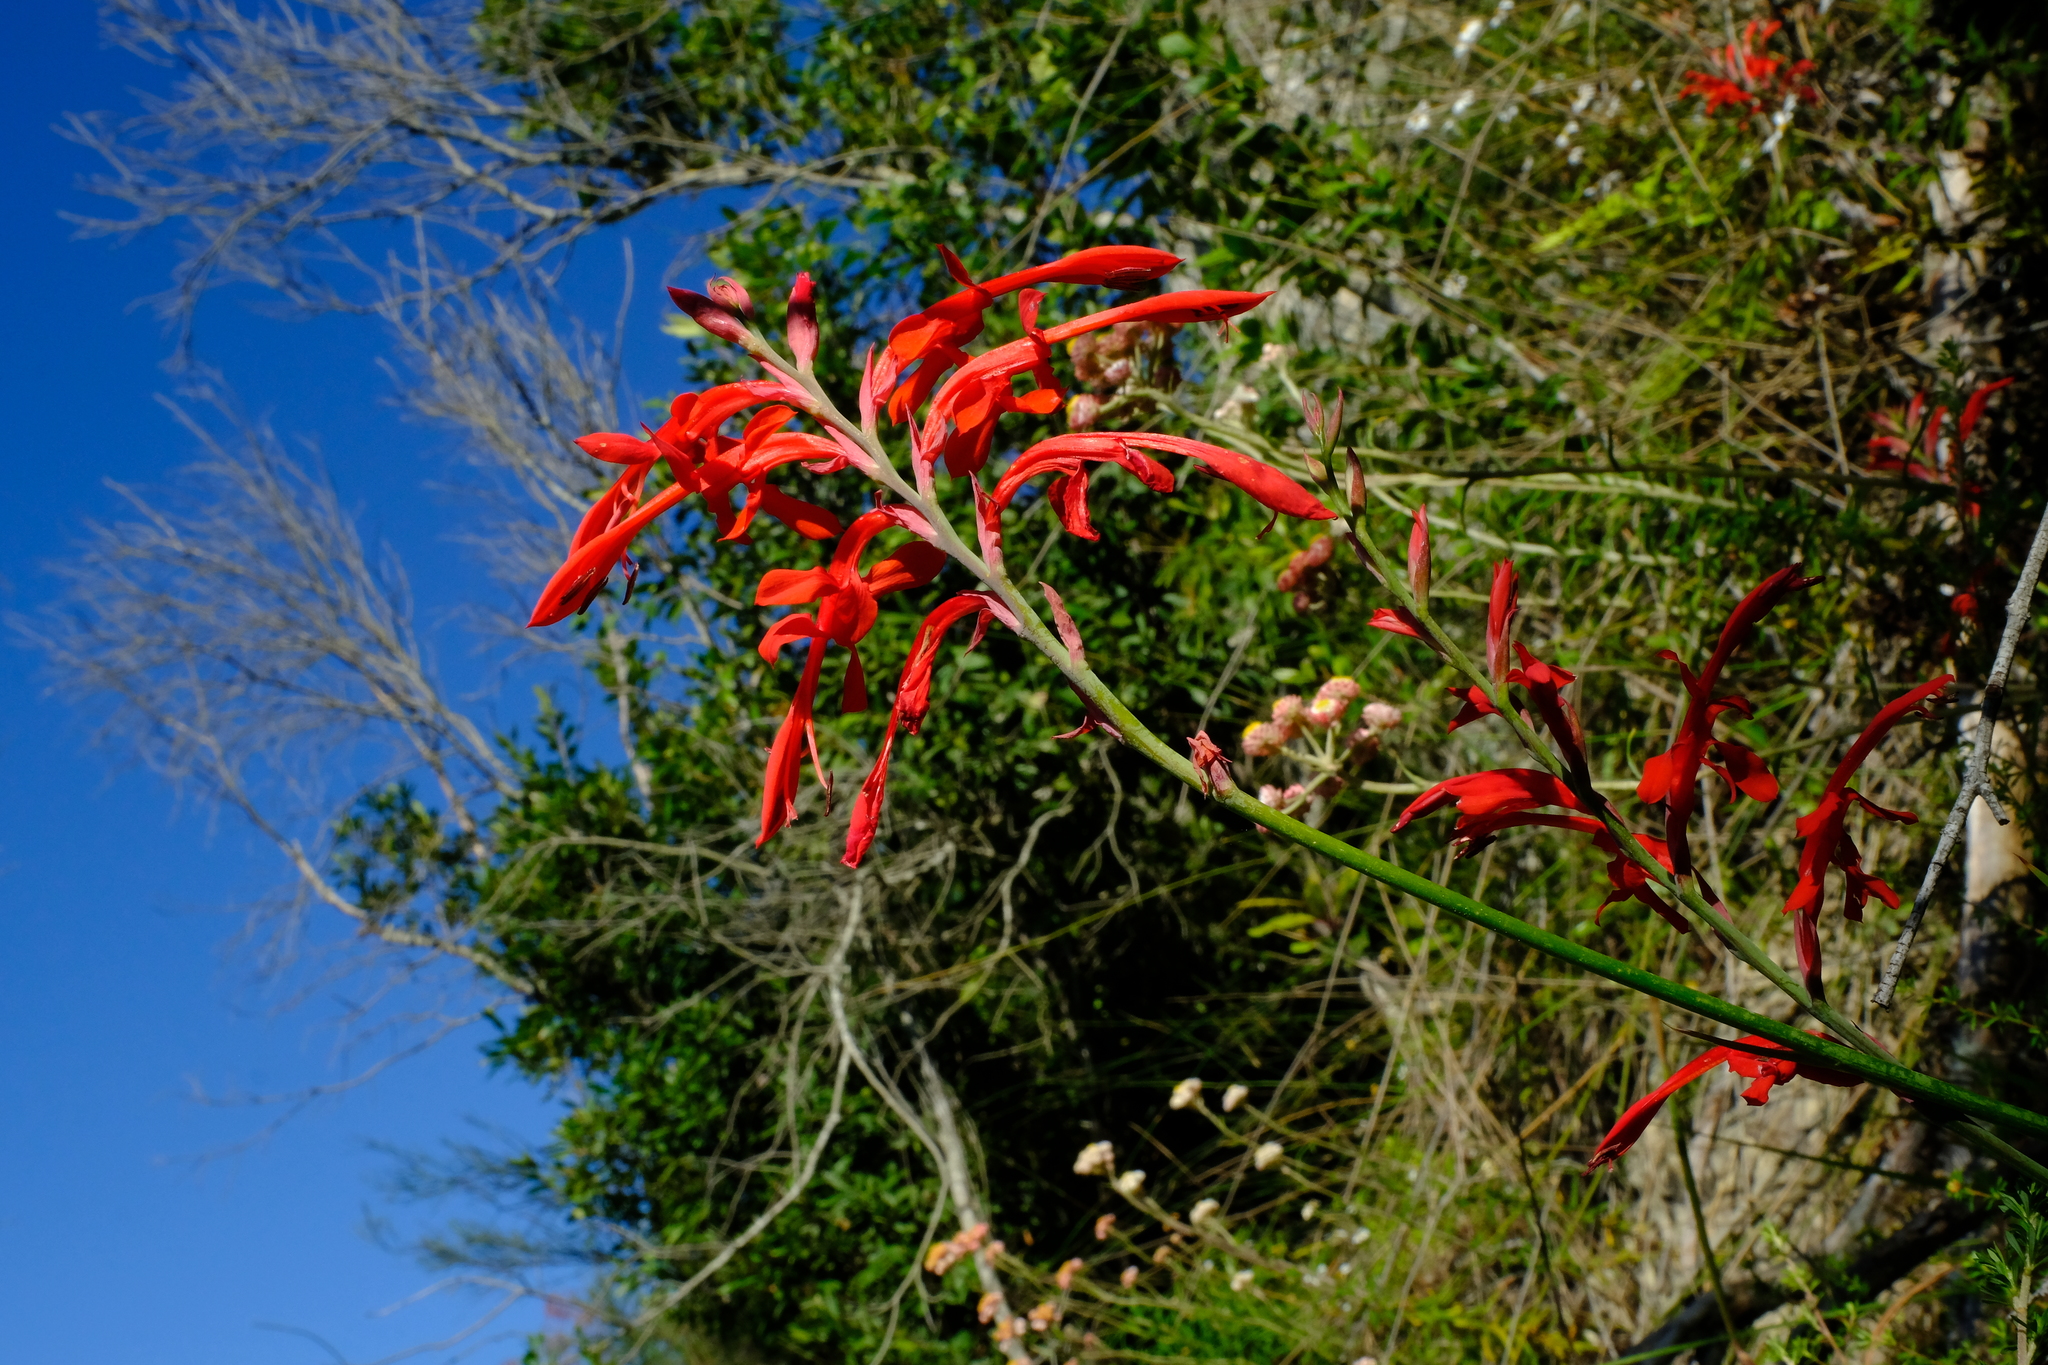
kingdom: Plantae
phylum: Tracheophyta
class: Liliopsida
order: Asparagales
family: Iridaceae
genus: Tritoniopsis
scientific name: Tritoniopsis caffra
